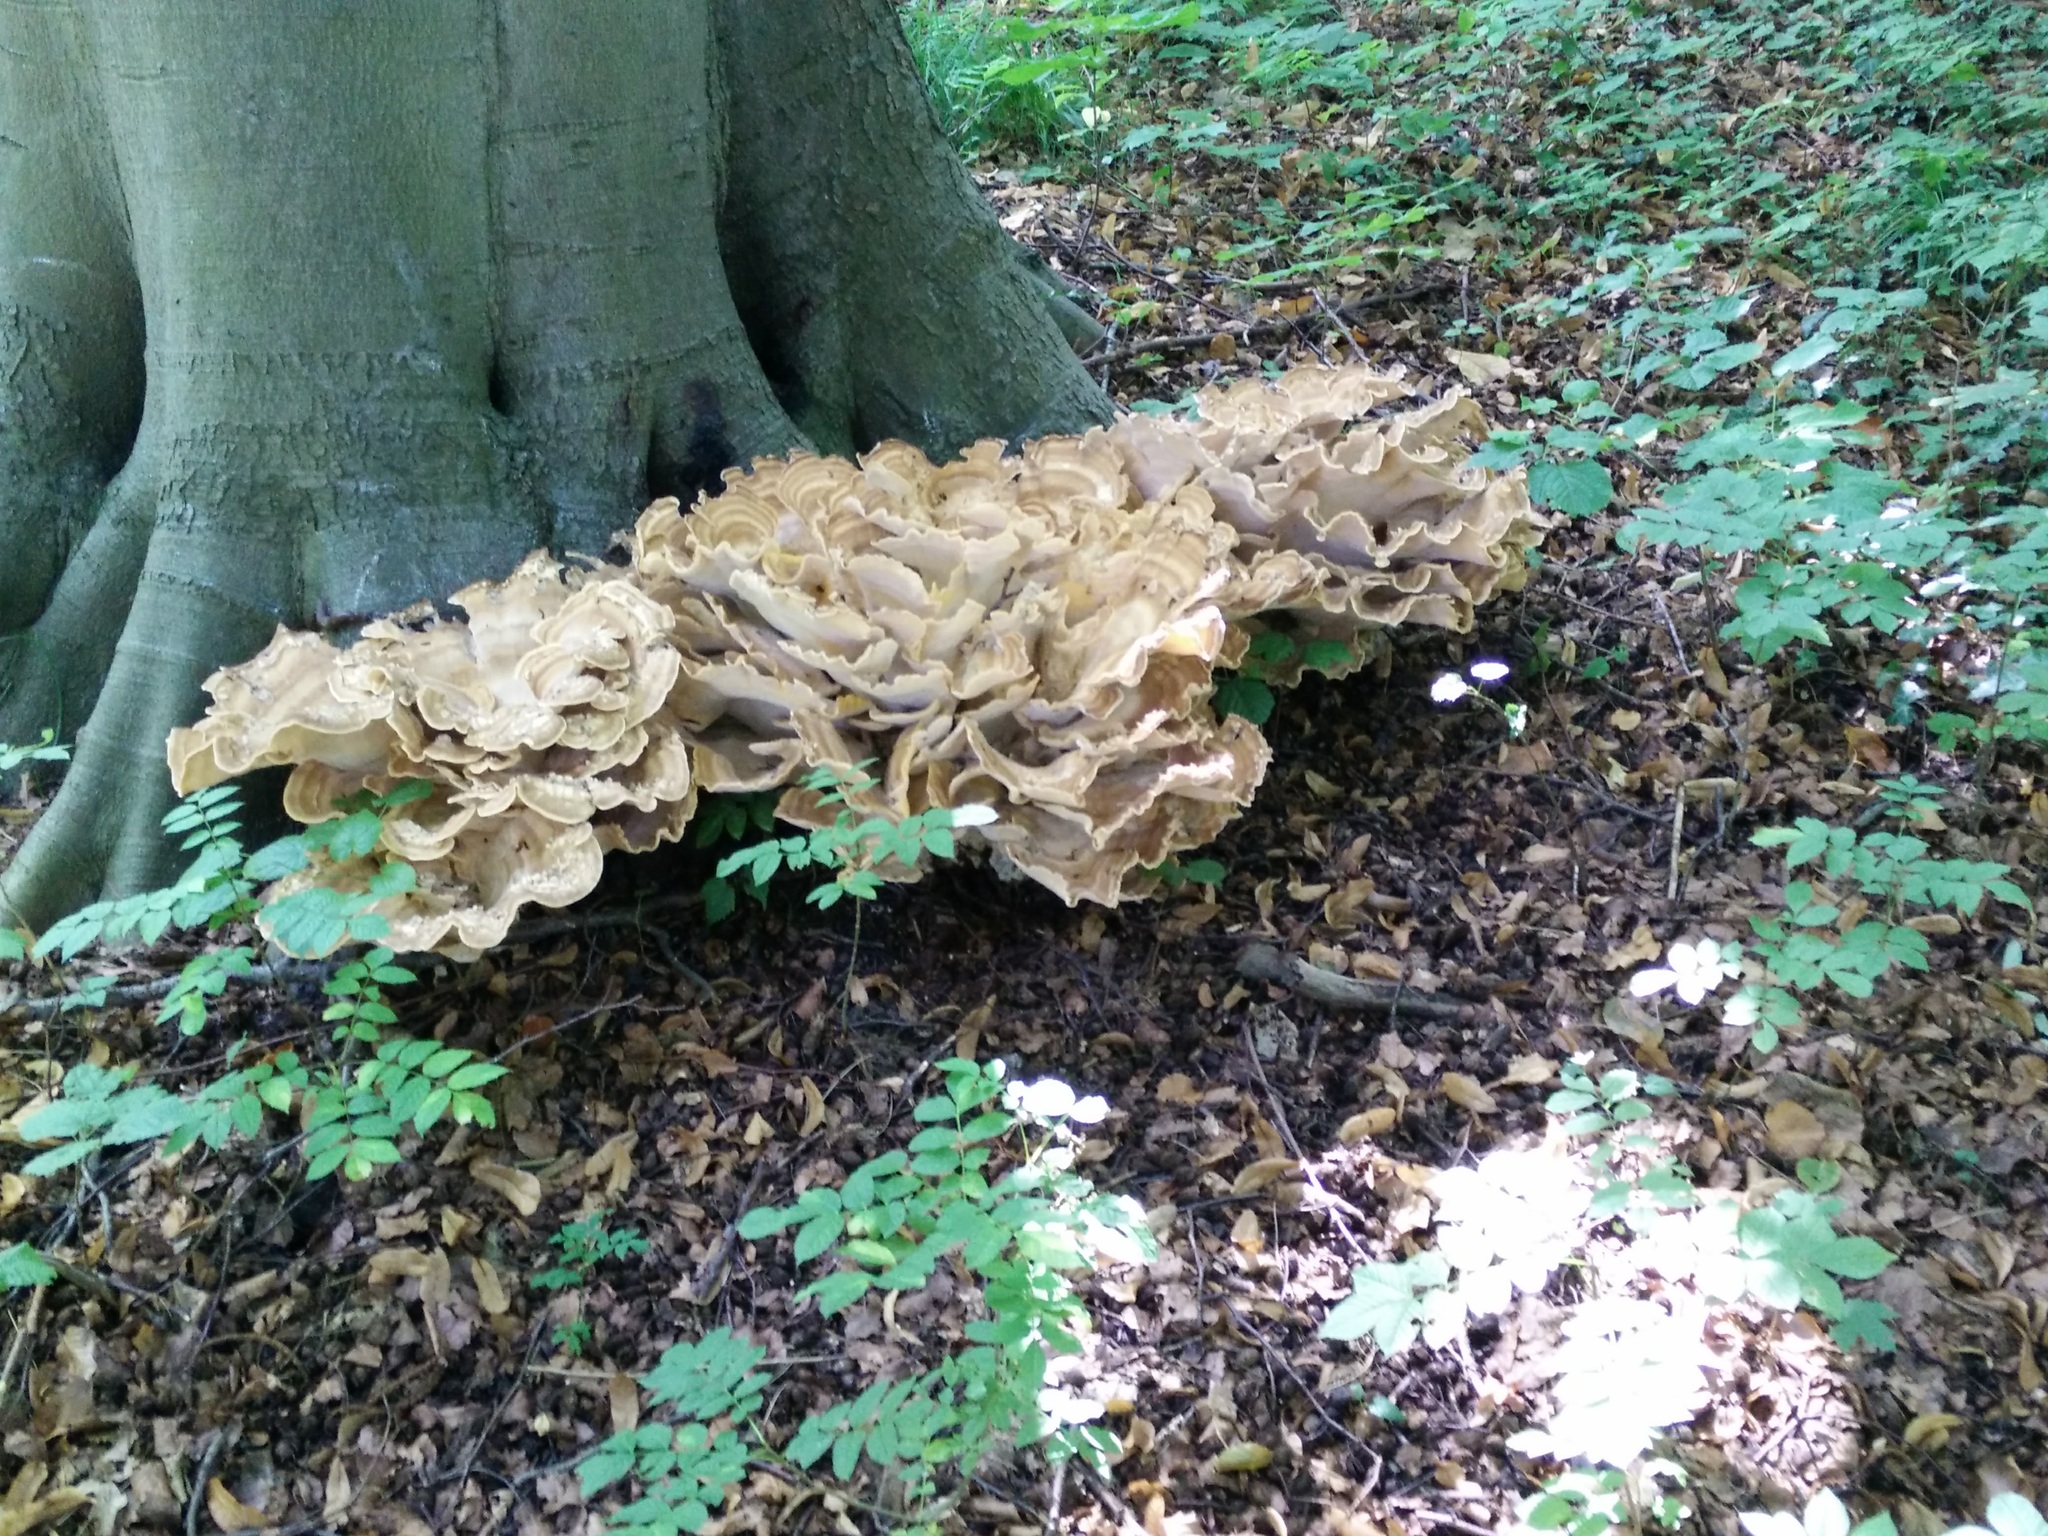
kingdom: Fungi
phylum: Basidiomycota
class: Agaricomycetes
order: Polyporales
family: Meripilaceae
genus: Meripilus
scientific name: Meripilus giganteus
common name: Giant polypore
